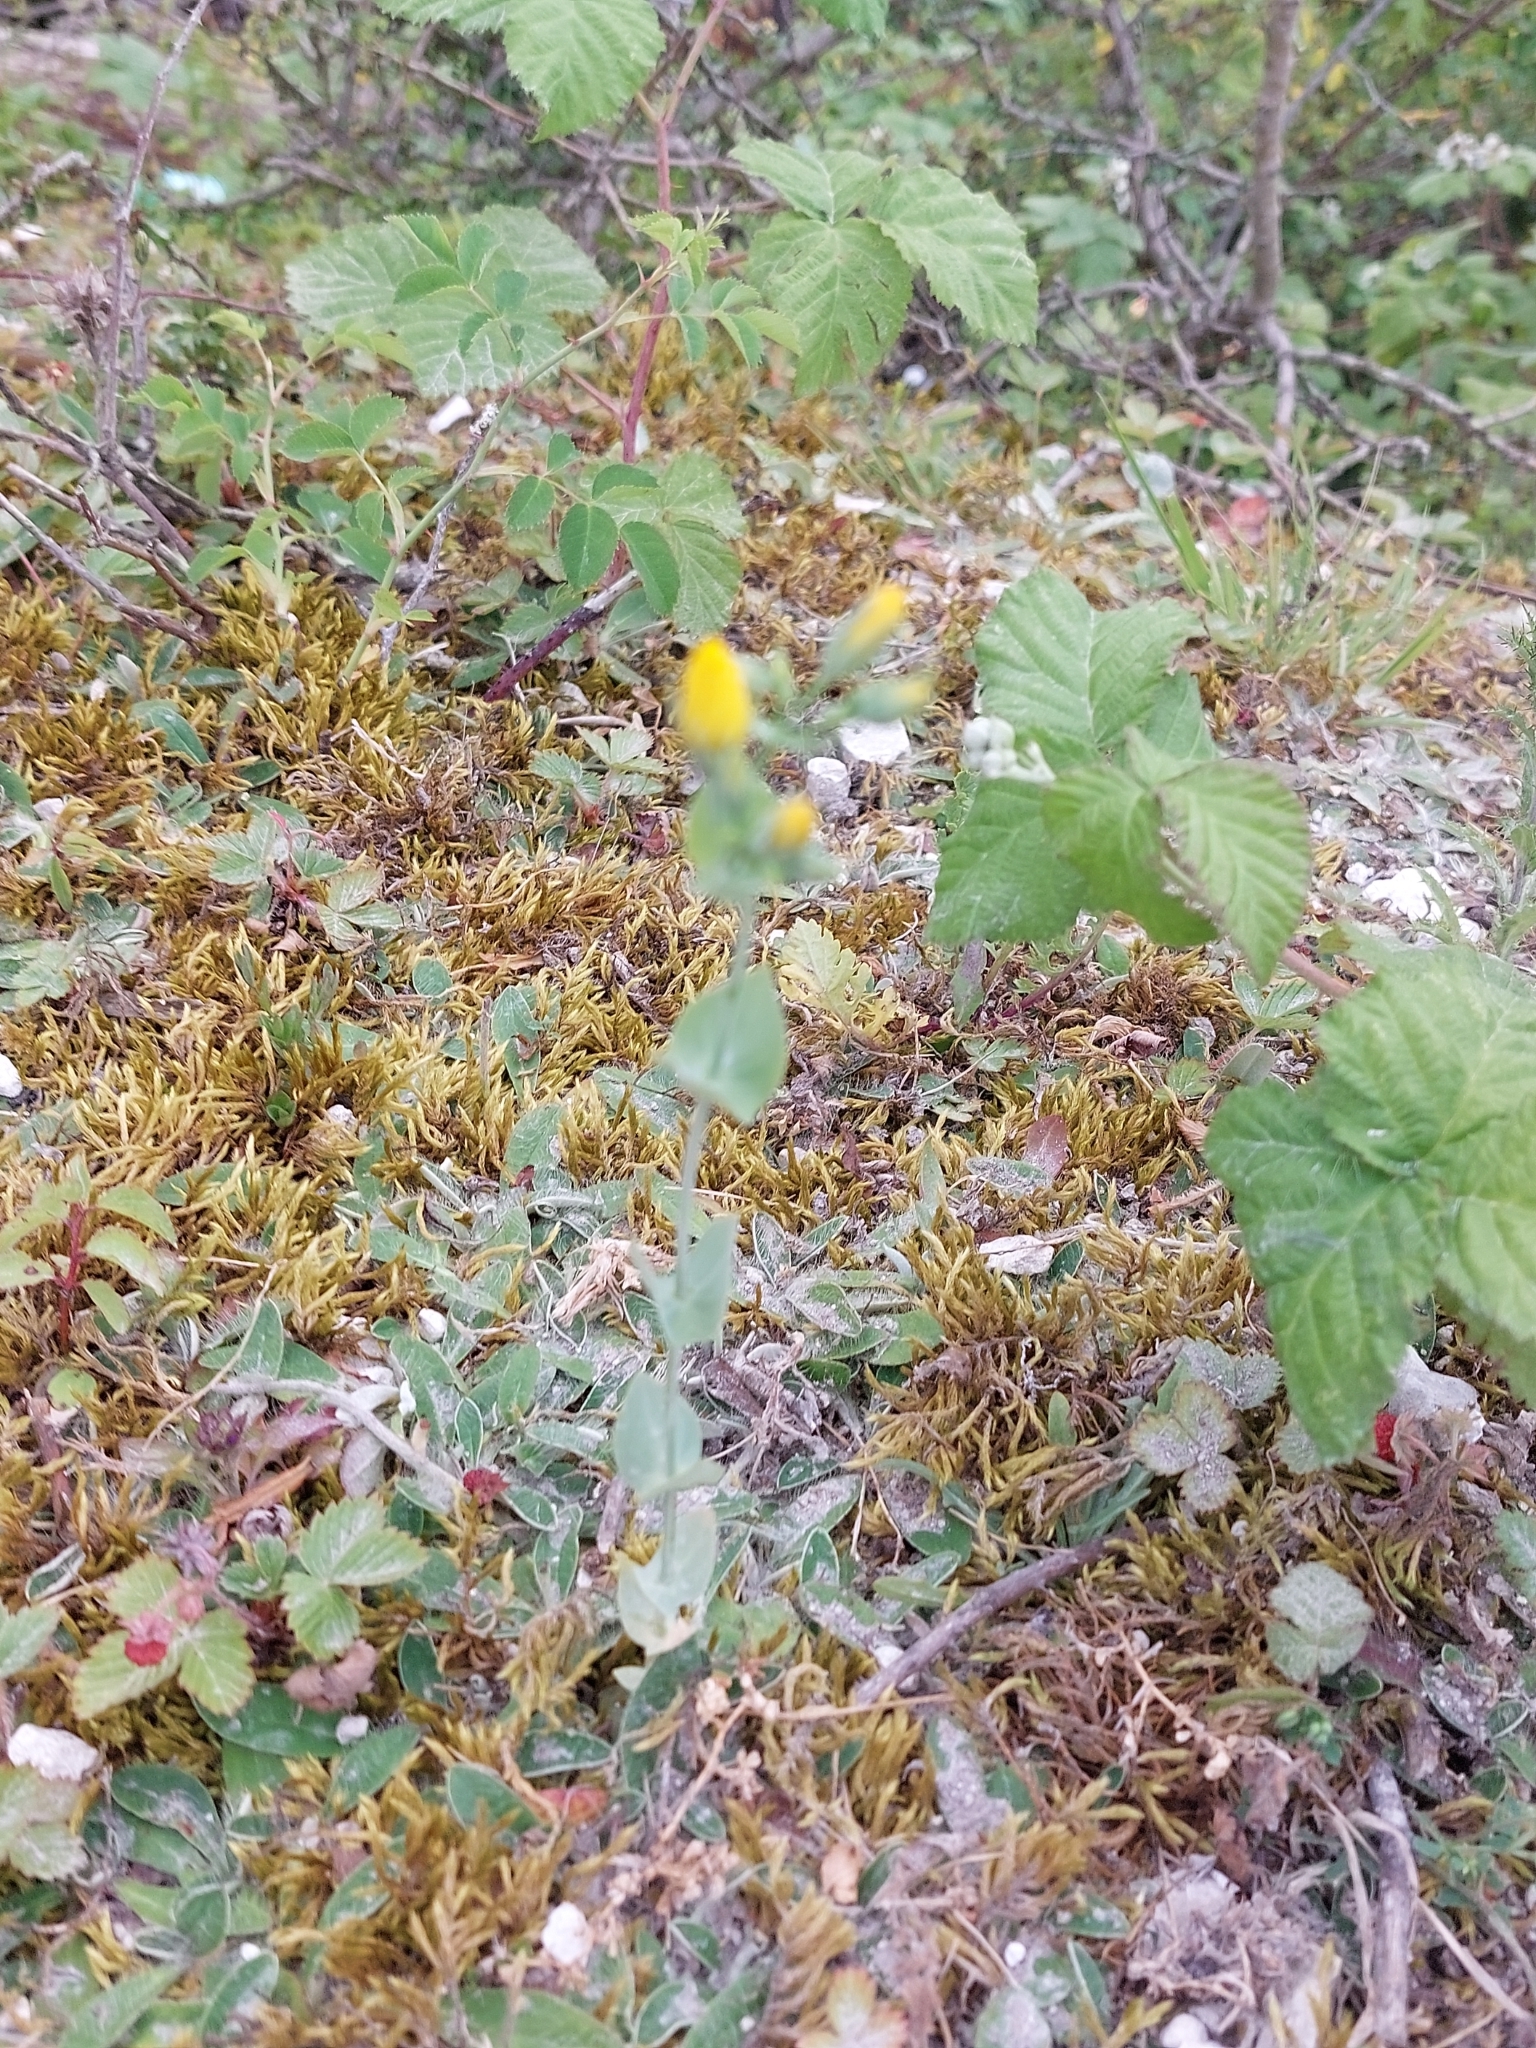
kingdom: Plantae
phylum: Tracheophyta
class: Magnoliopsida
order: Gentianales
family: Gentianaceae
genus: Blackstonia
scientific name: Blackstonia perfoliata
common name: Yellow-wort
